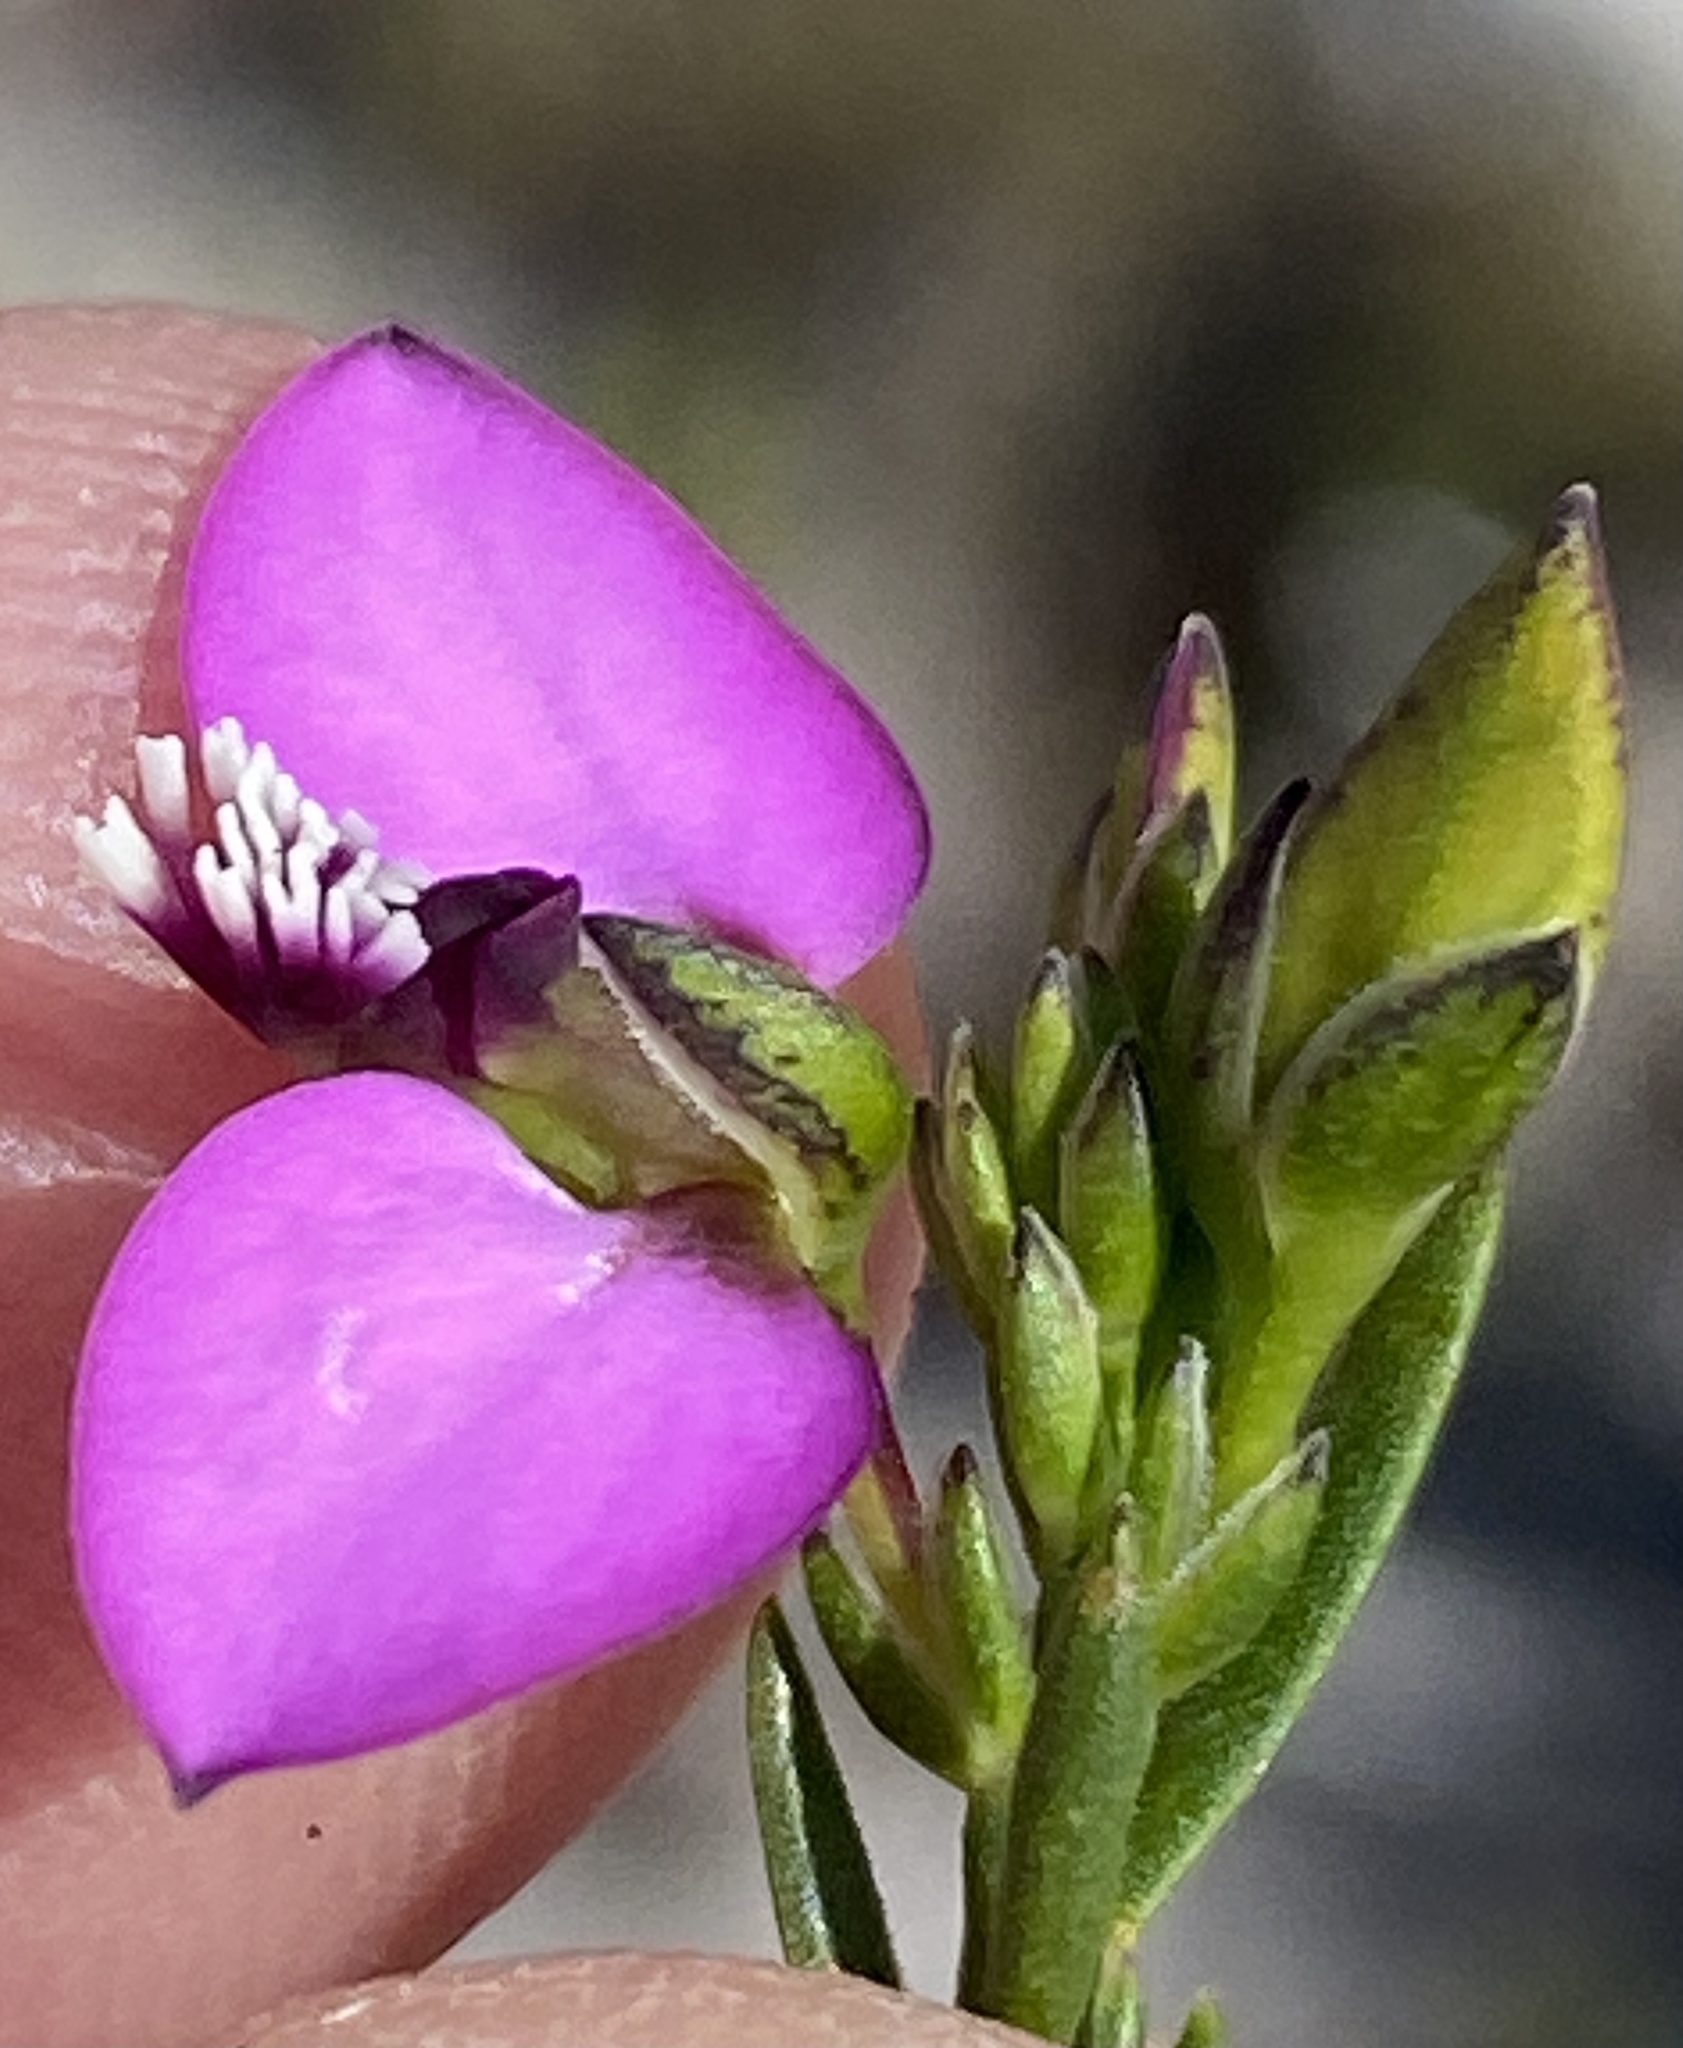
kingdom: Plantae
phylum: Tracheophyta
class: Magnoliopsida
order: Fabales
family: Polygalaceae
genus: Polygala
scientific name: Polygala recognita
